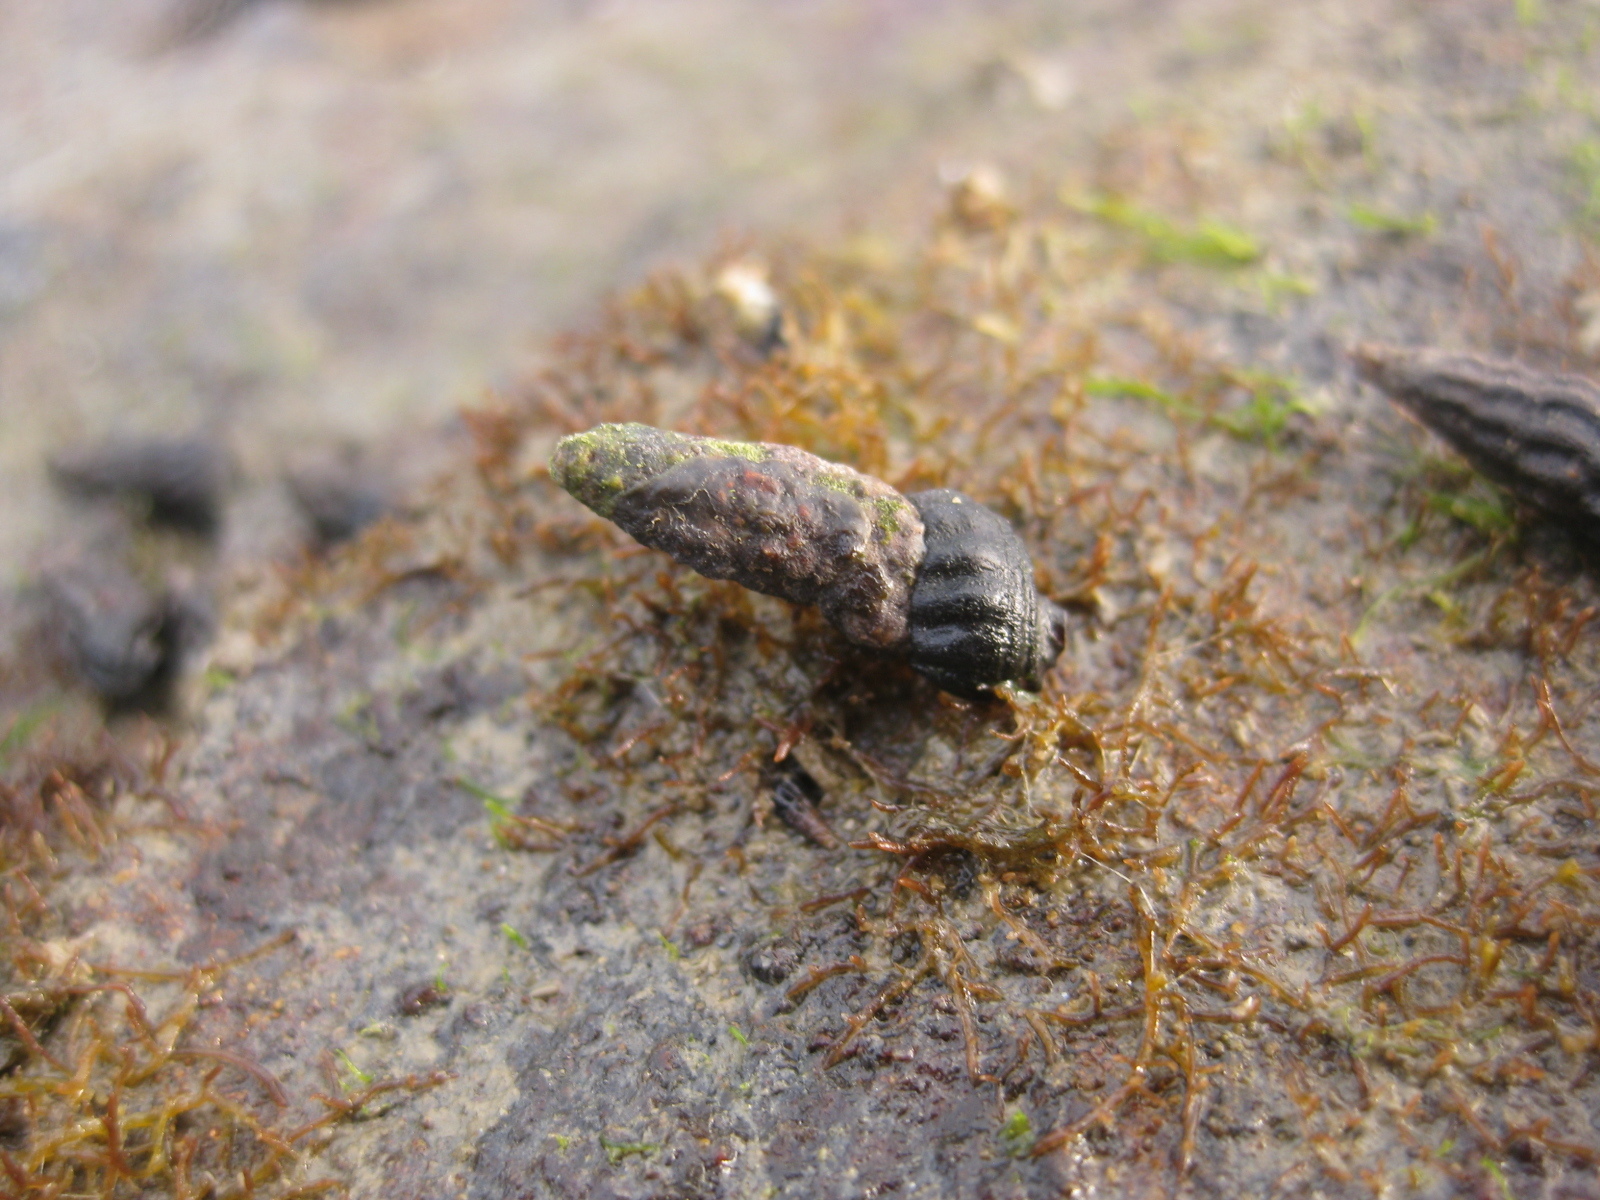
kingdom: Animalia
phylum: Mollusca
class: Gastropoda
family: Batillariidae
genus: Zeacumantus
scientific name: Zeacumantus subcarinatus
